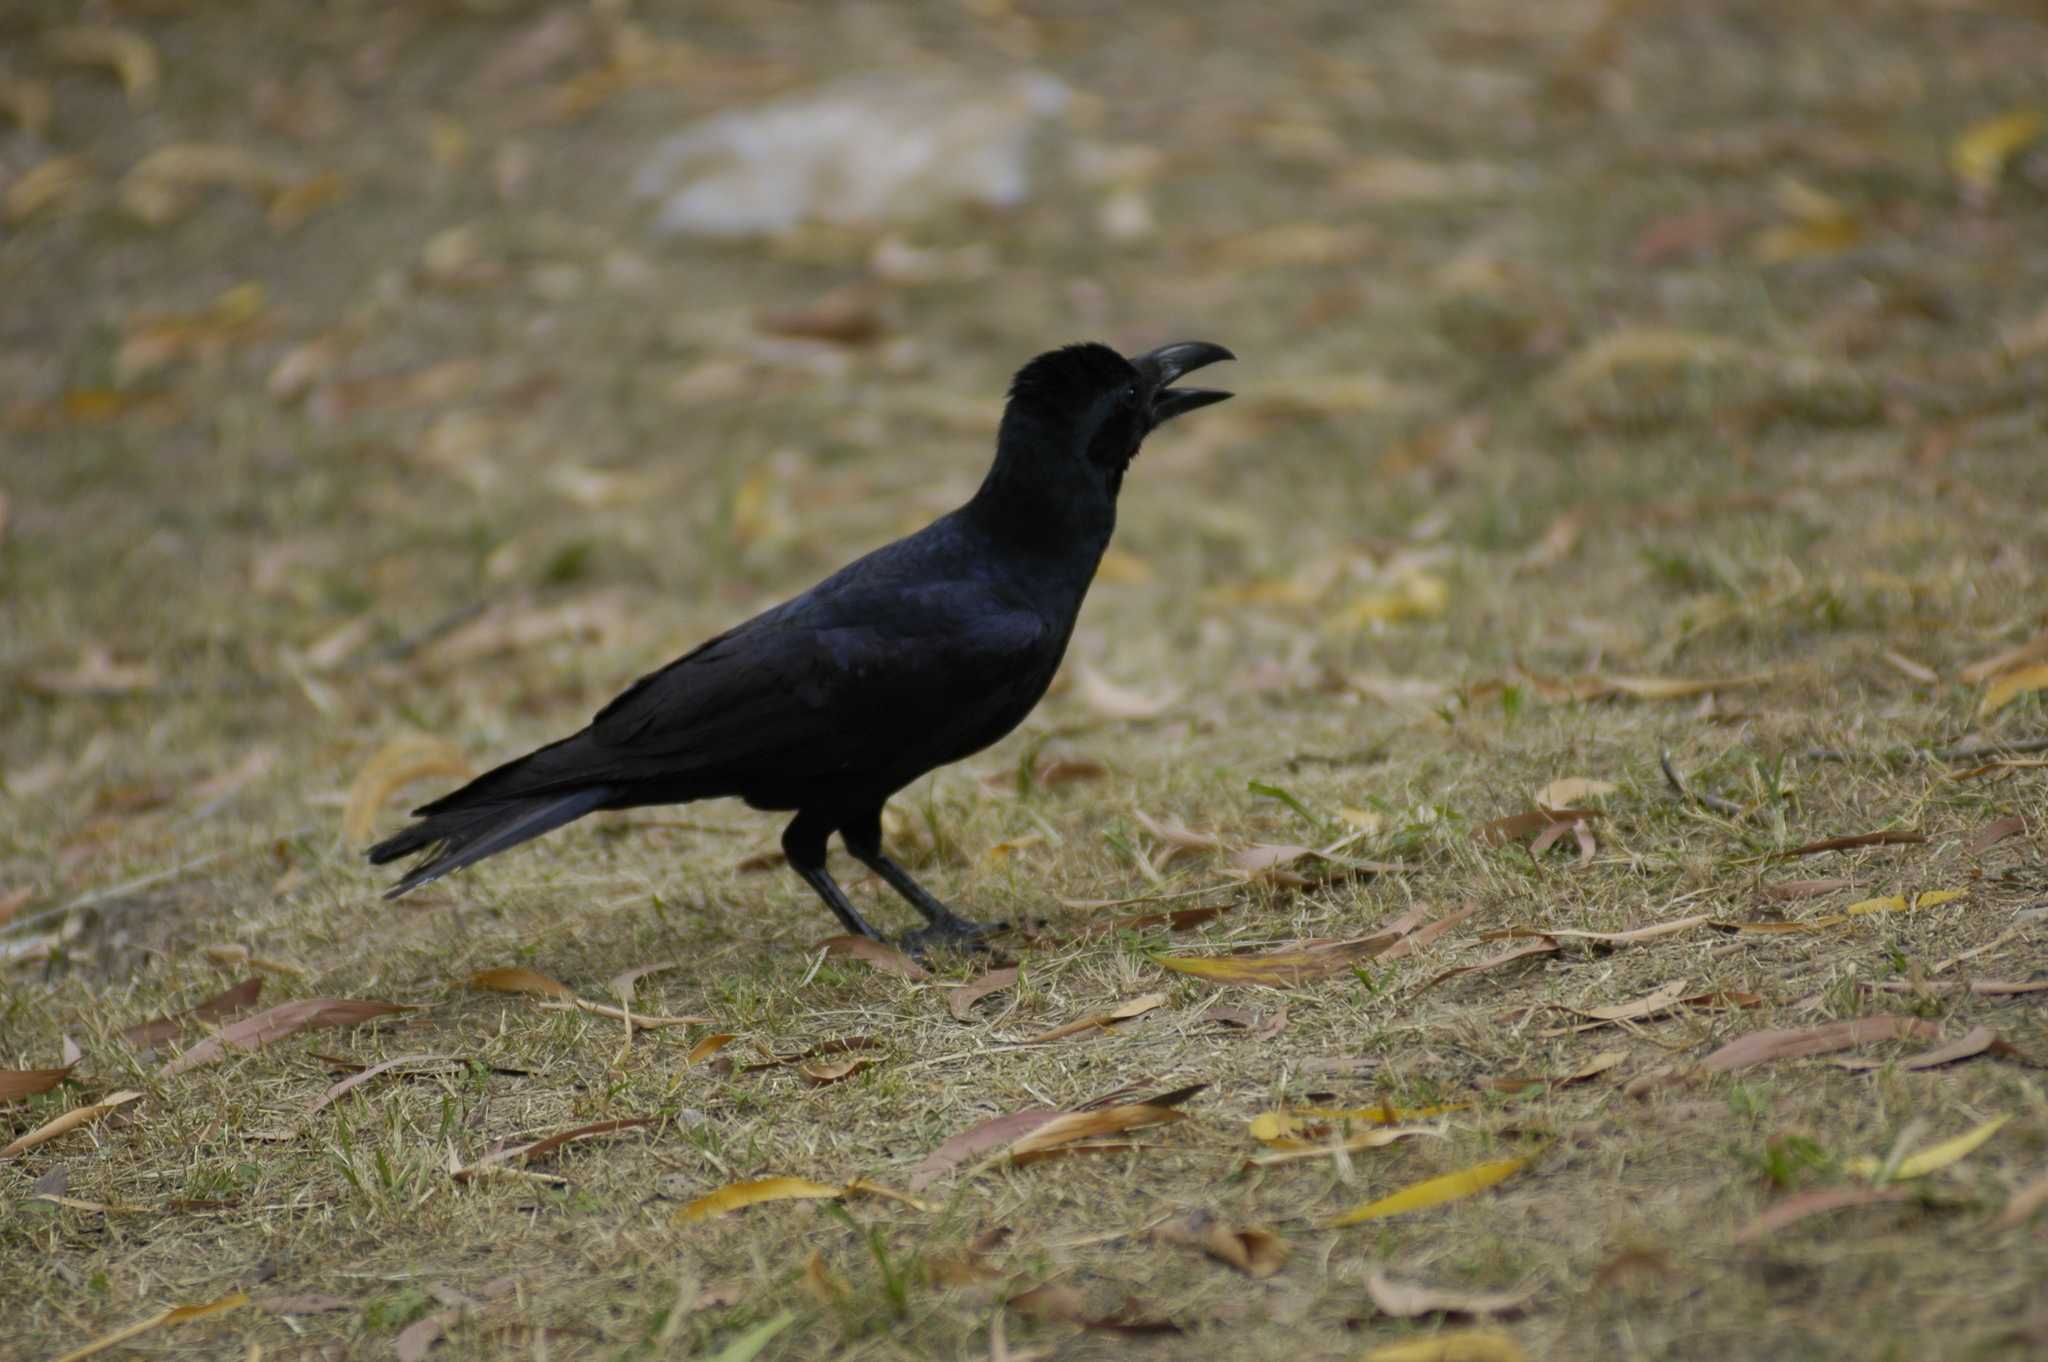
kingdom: Animalia
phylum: Chordata
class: Aves
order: Passeriformes
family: Corvidae
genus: Corvus
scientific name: Corvus macrorhynchos
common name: Large-billed crow
